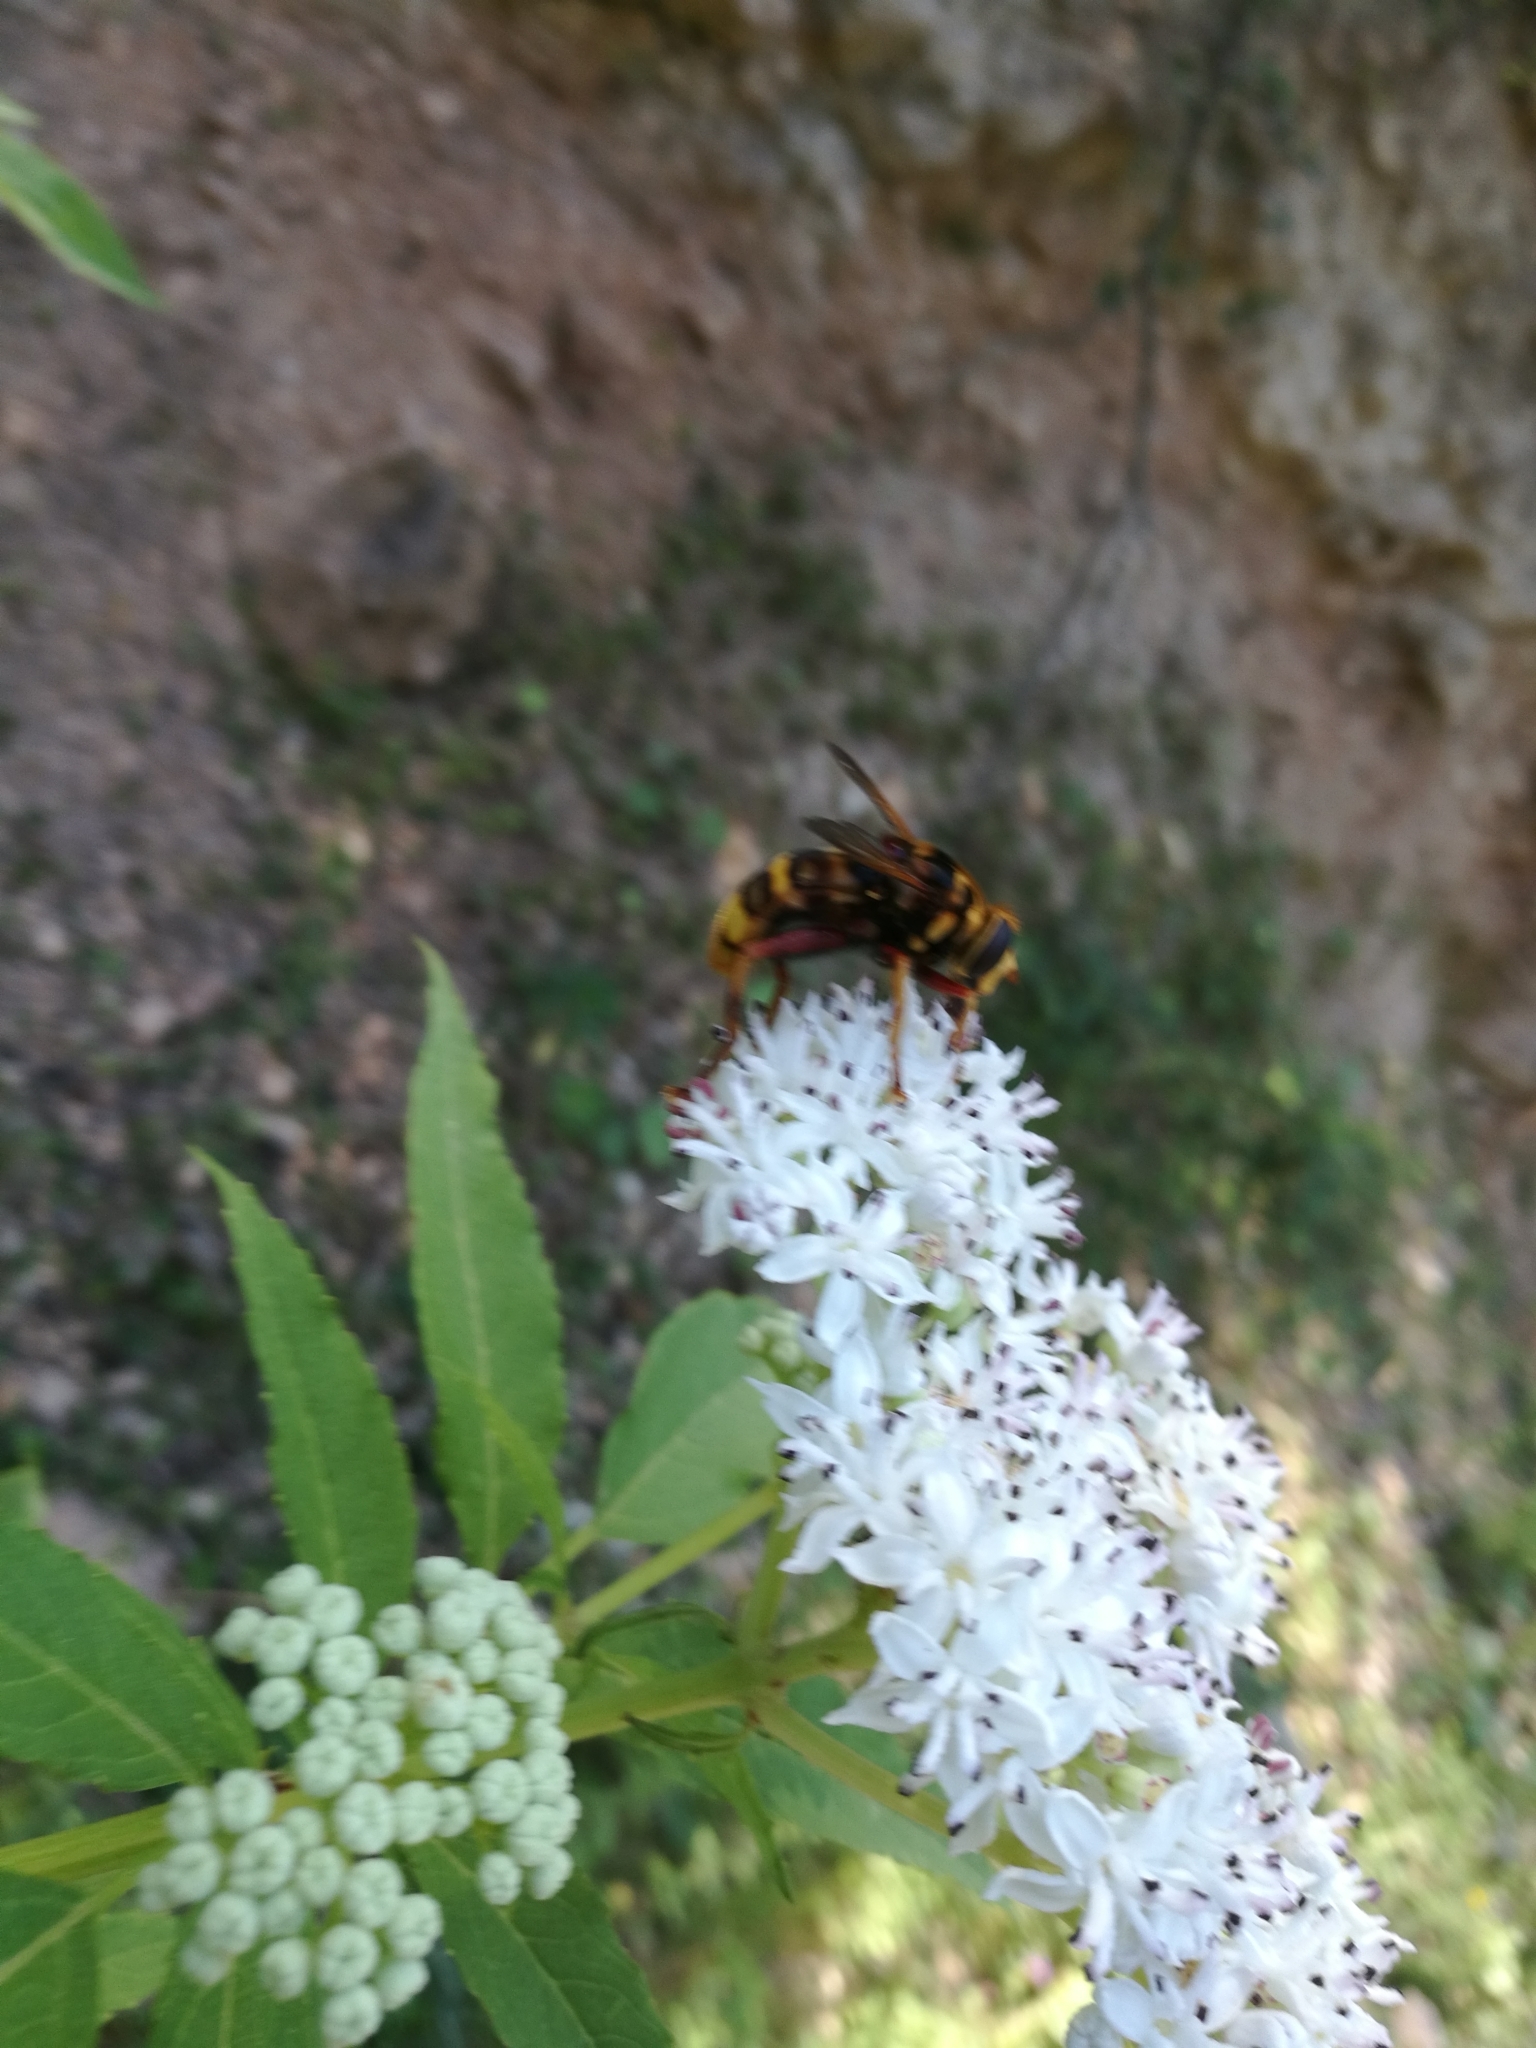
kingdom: Animalia
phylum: Arthropoda
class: Insecta
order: Diptera
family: Syrphidae
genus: Milesia
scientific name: Milesia crabroniformis
